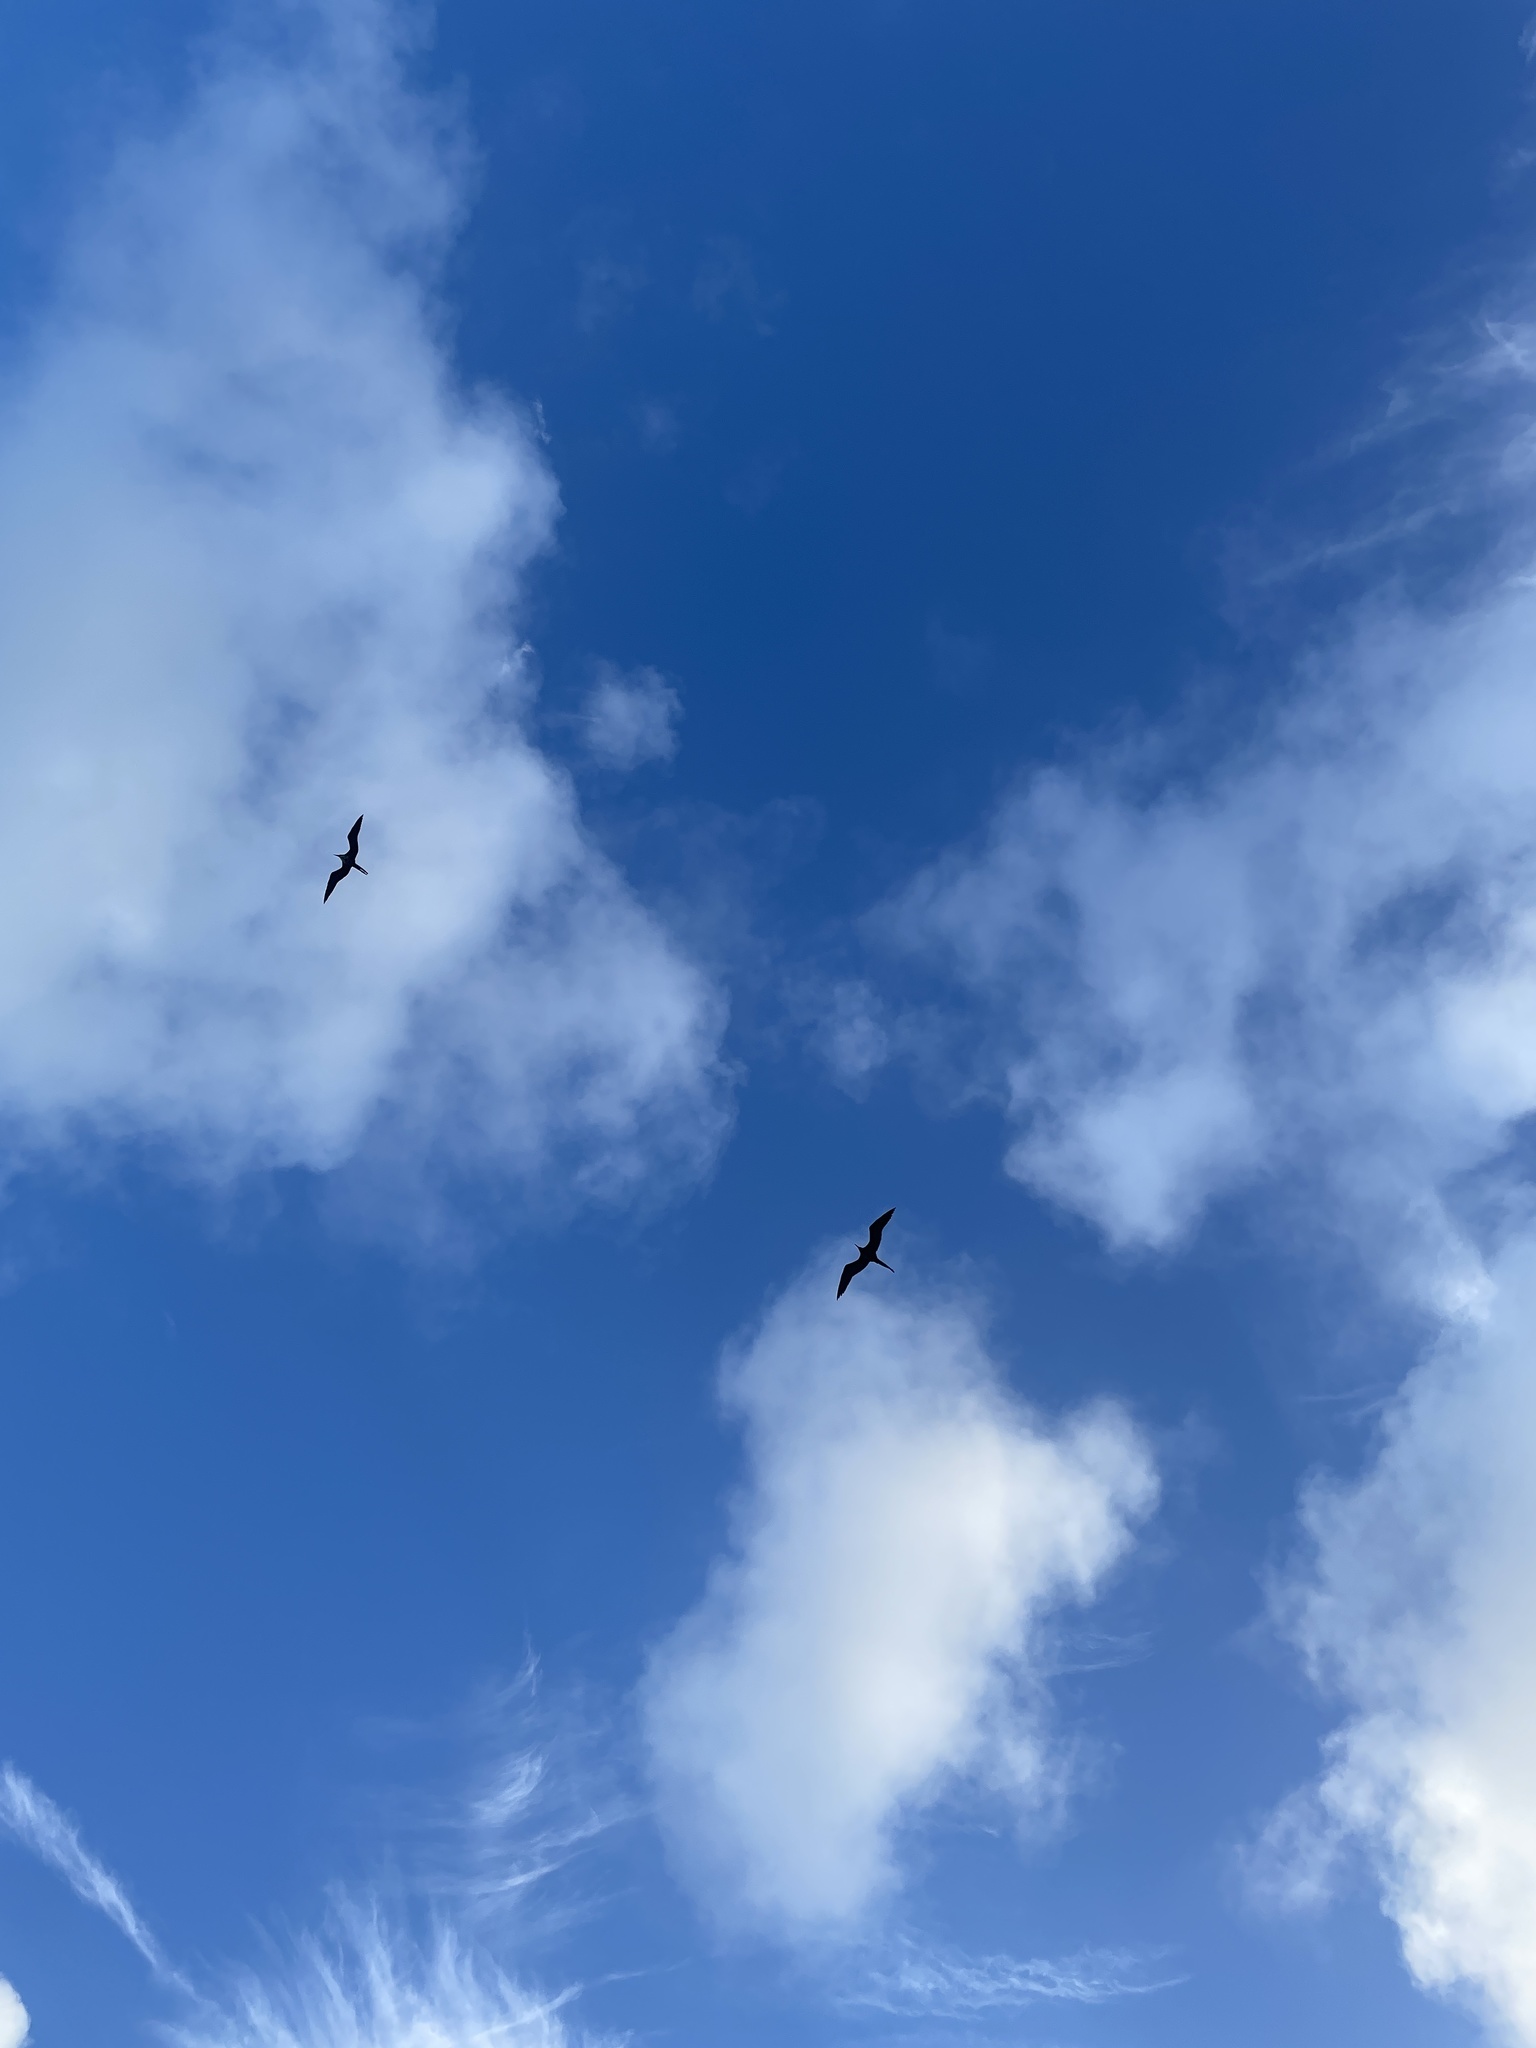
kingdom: Animalia
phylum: Chordata
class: Aves
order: Suliformes
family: Fregatidae
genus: Fregata
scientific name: Fregata magnificens
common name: Magnificent frigatebird
